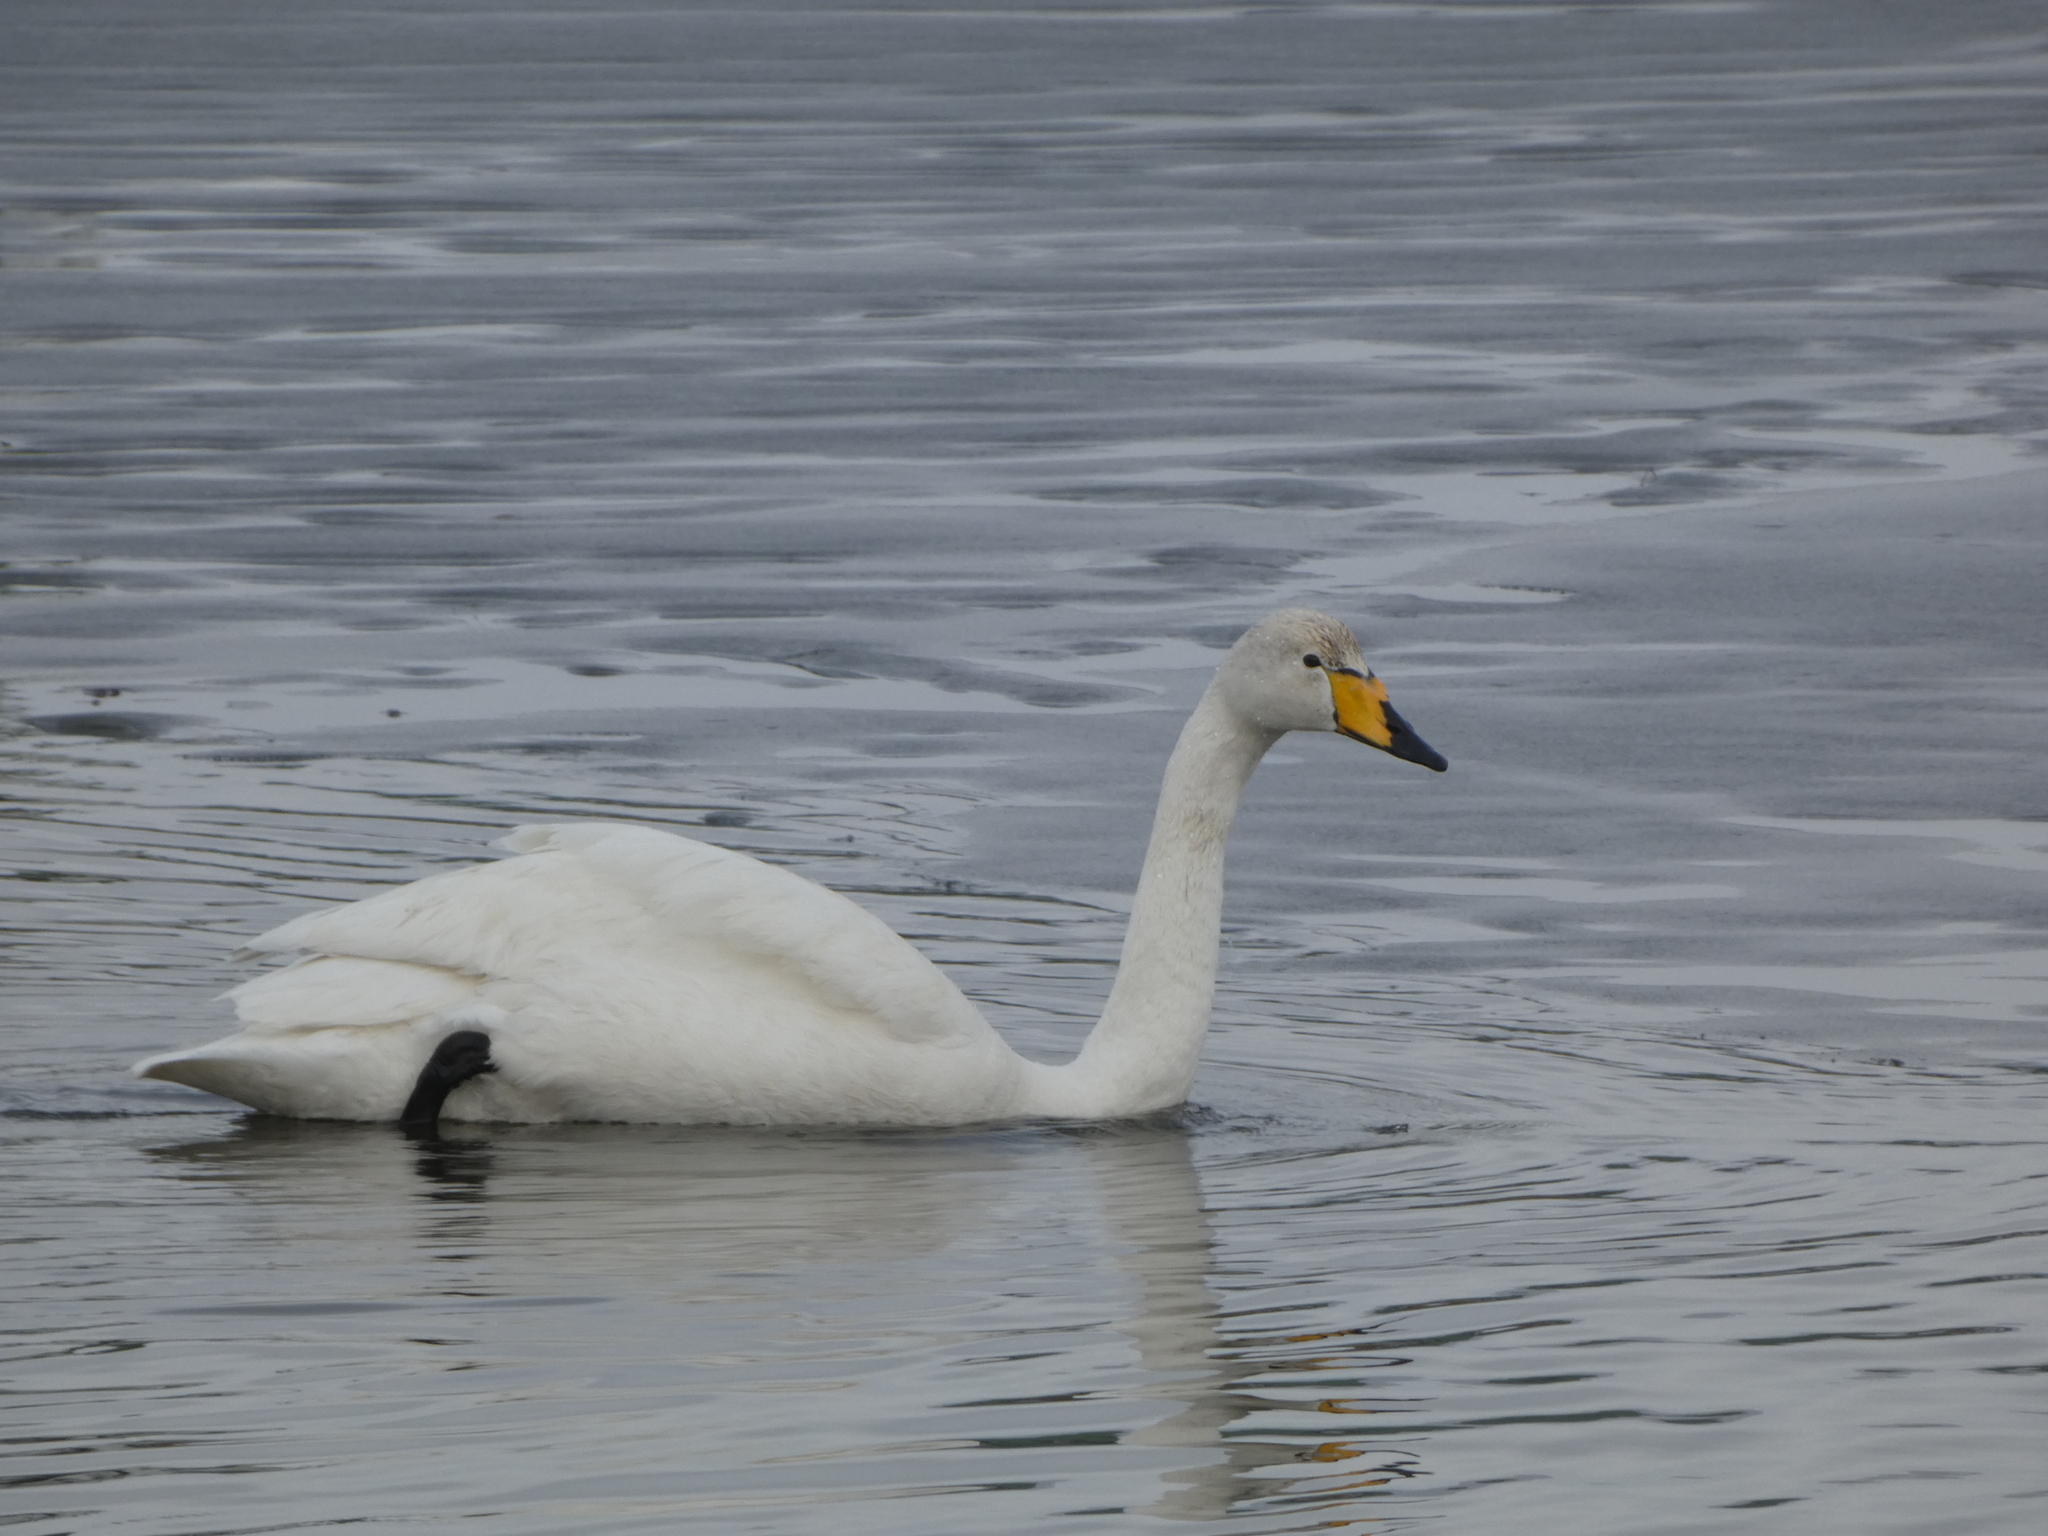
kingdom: Animalia
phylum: Chordata
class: Aves
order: Anseriformes
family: Anatidae
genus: Cygnus
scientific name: Cygnus cygnus
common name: Whooper swan
